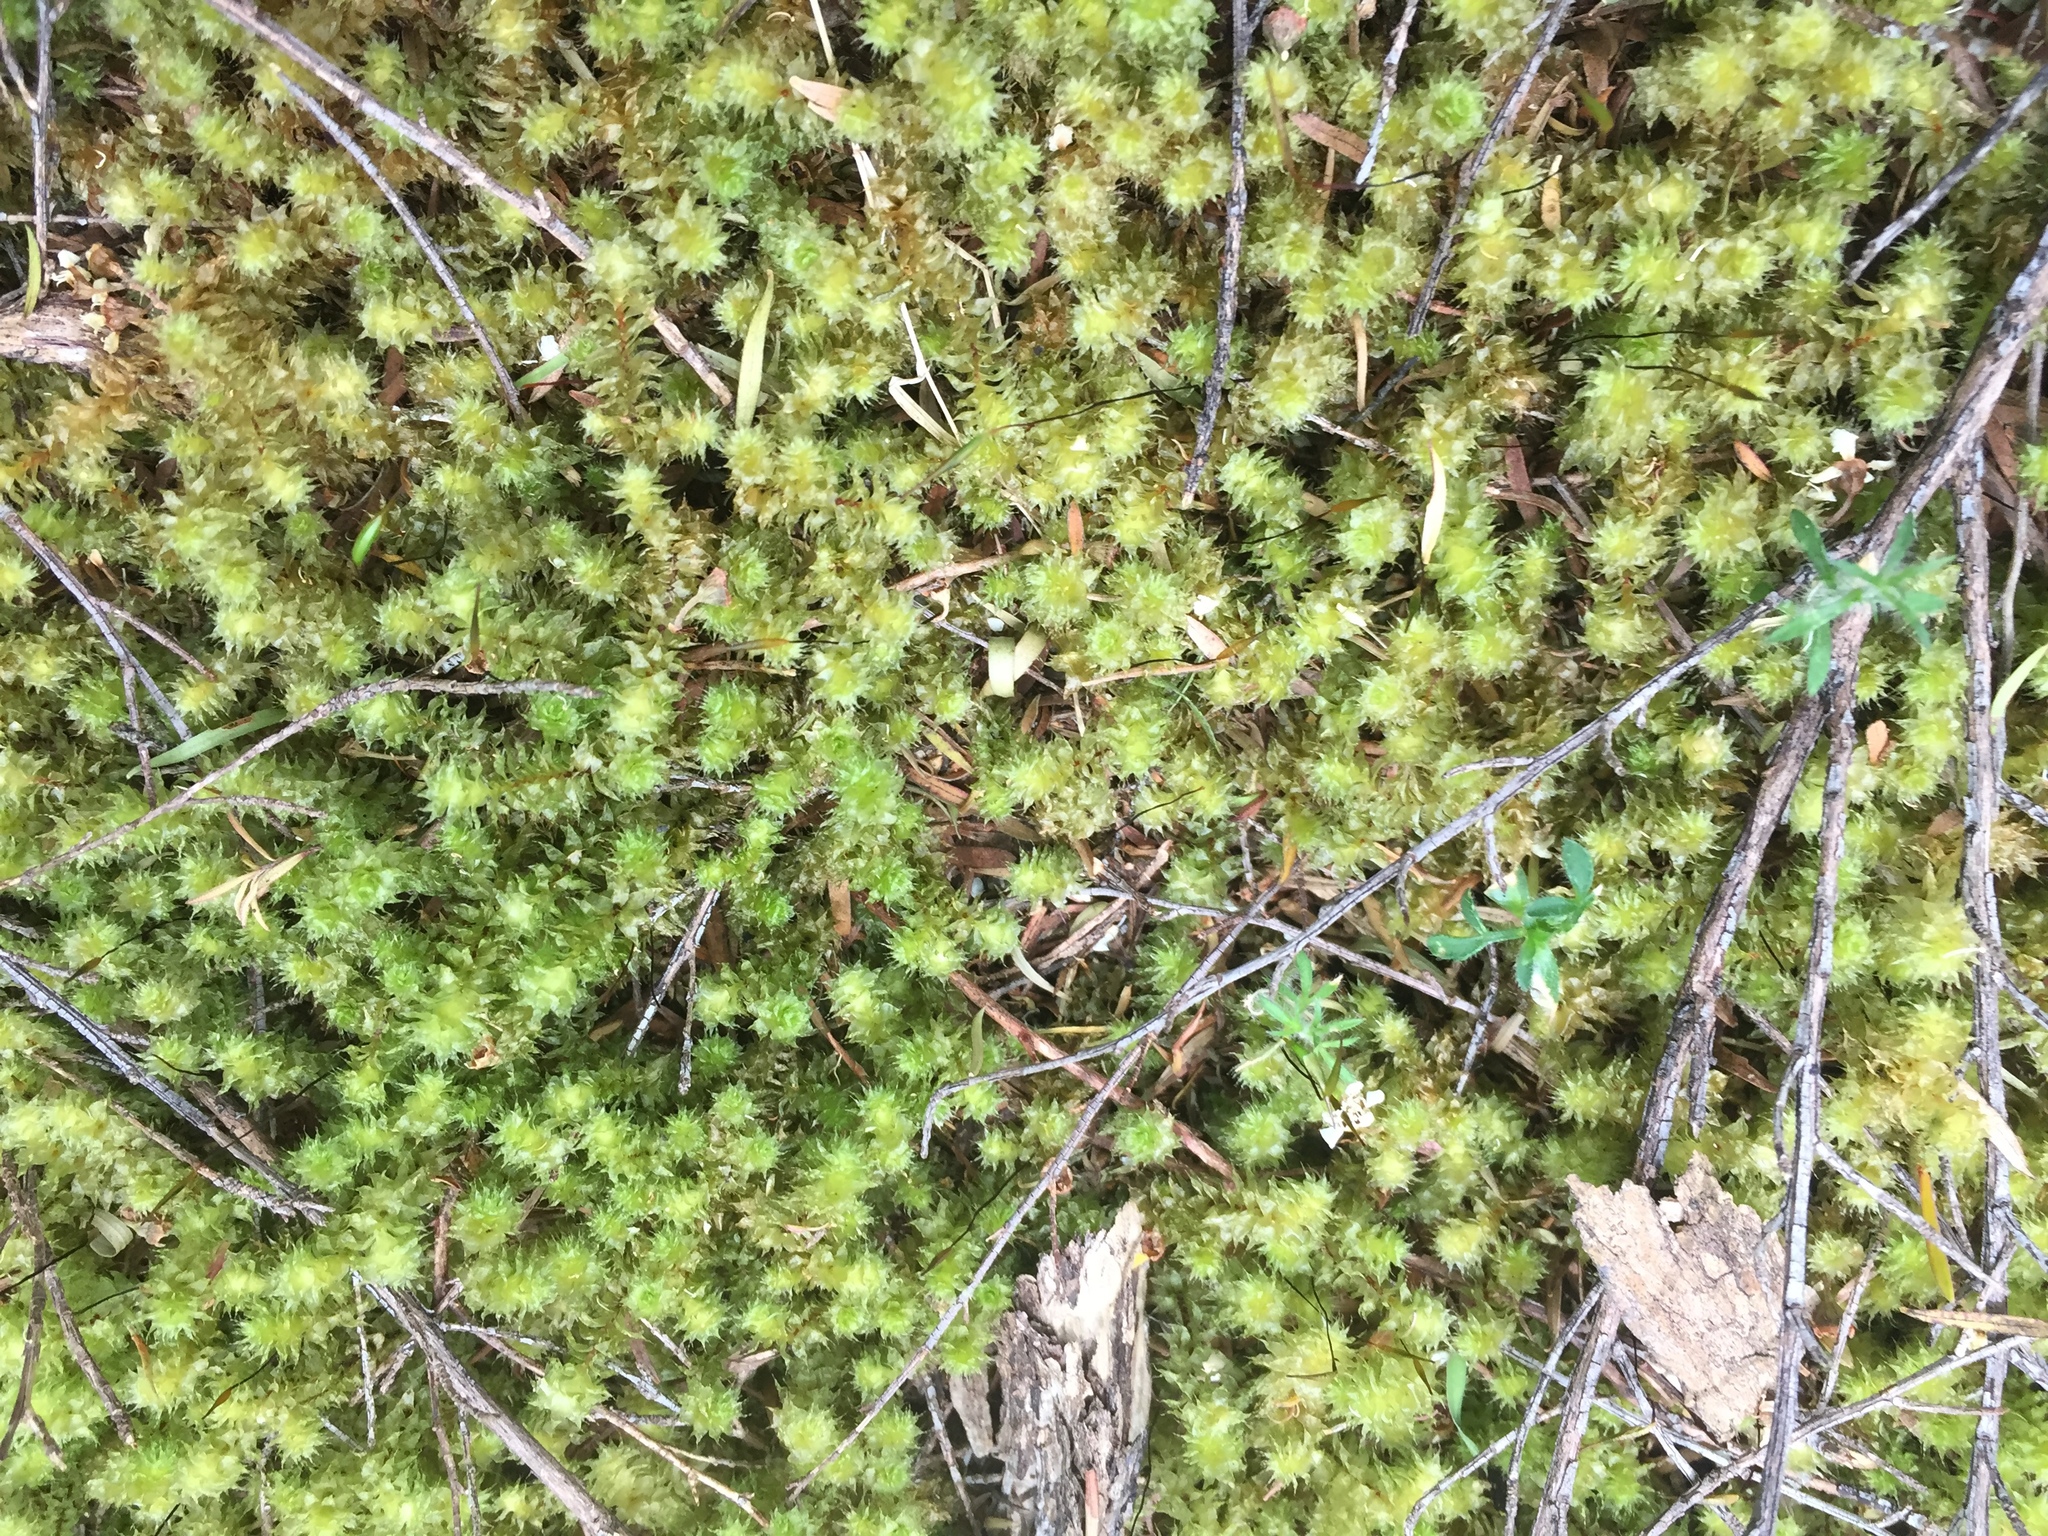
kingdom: Plantae
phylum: Bryophyta
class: Bryopsida
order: Ptychomniales
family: Ptychomniaceae
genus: Ptychomnion
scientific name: Ptychomnion aciculare
